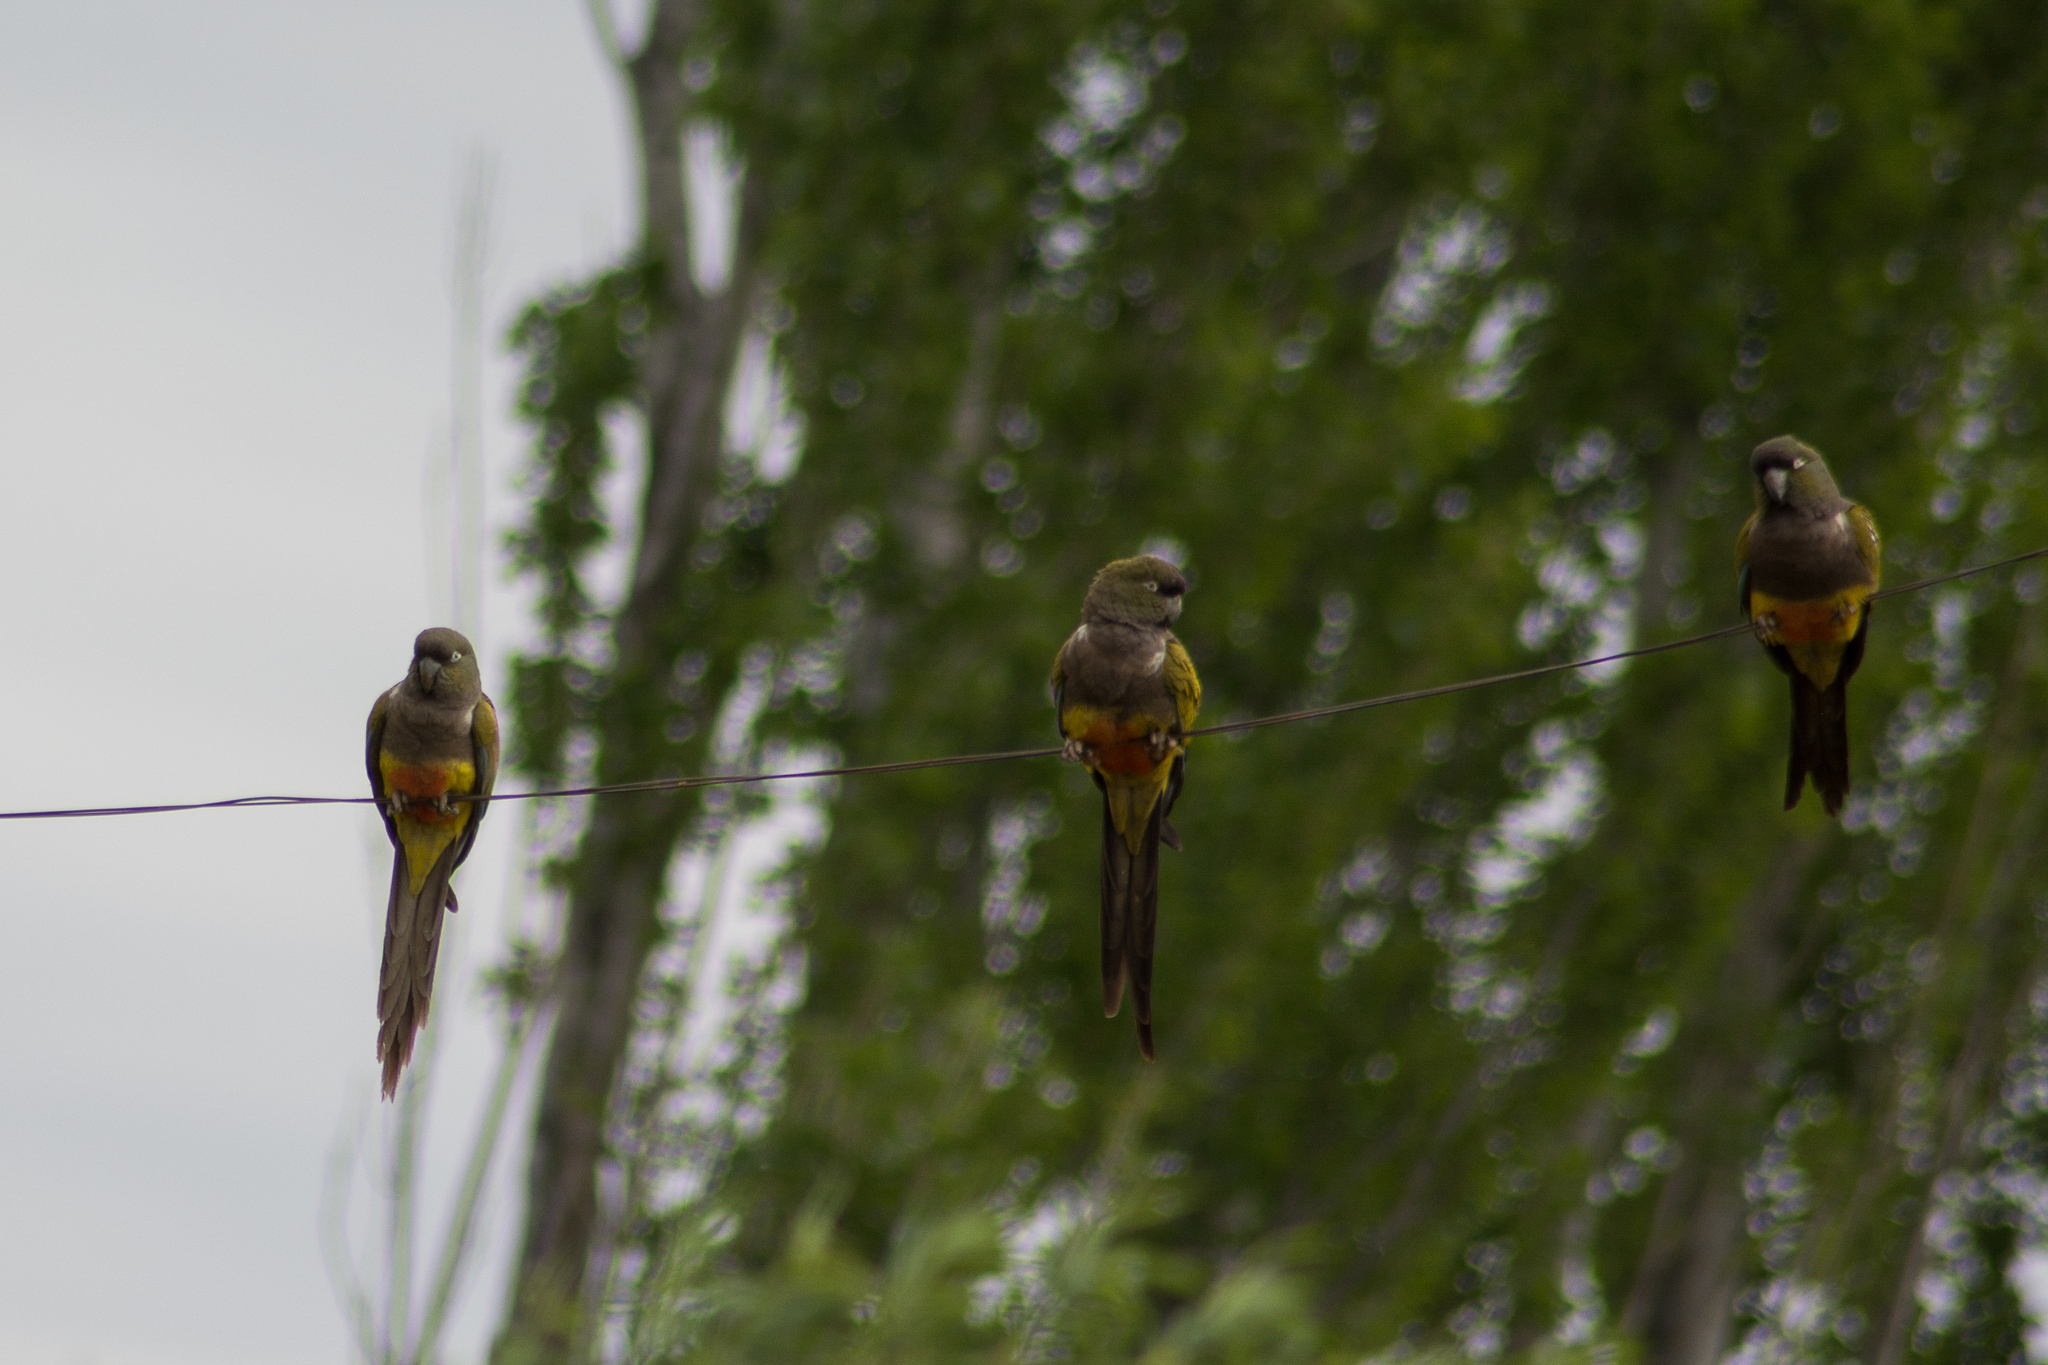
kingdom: Animalia
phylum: Chordata
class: Aves
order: Psittaciformes
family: Psittacidae
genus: Cyanoliseus
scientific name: Cyanoliseus patagonus
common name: Burrowing parrot
